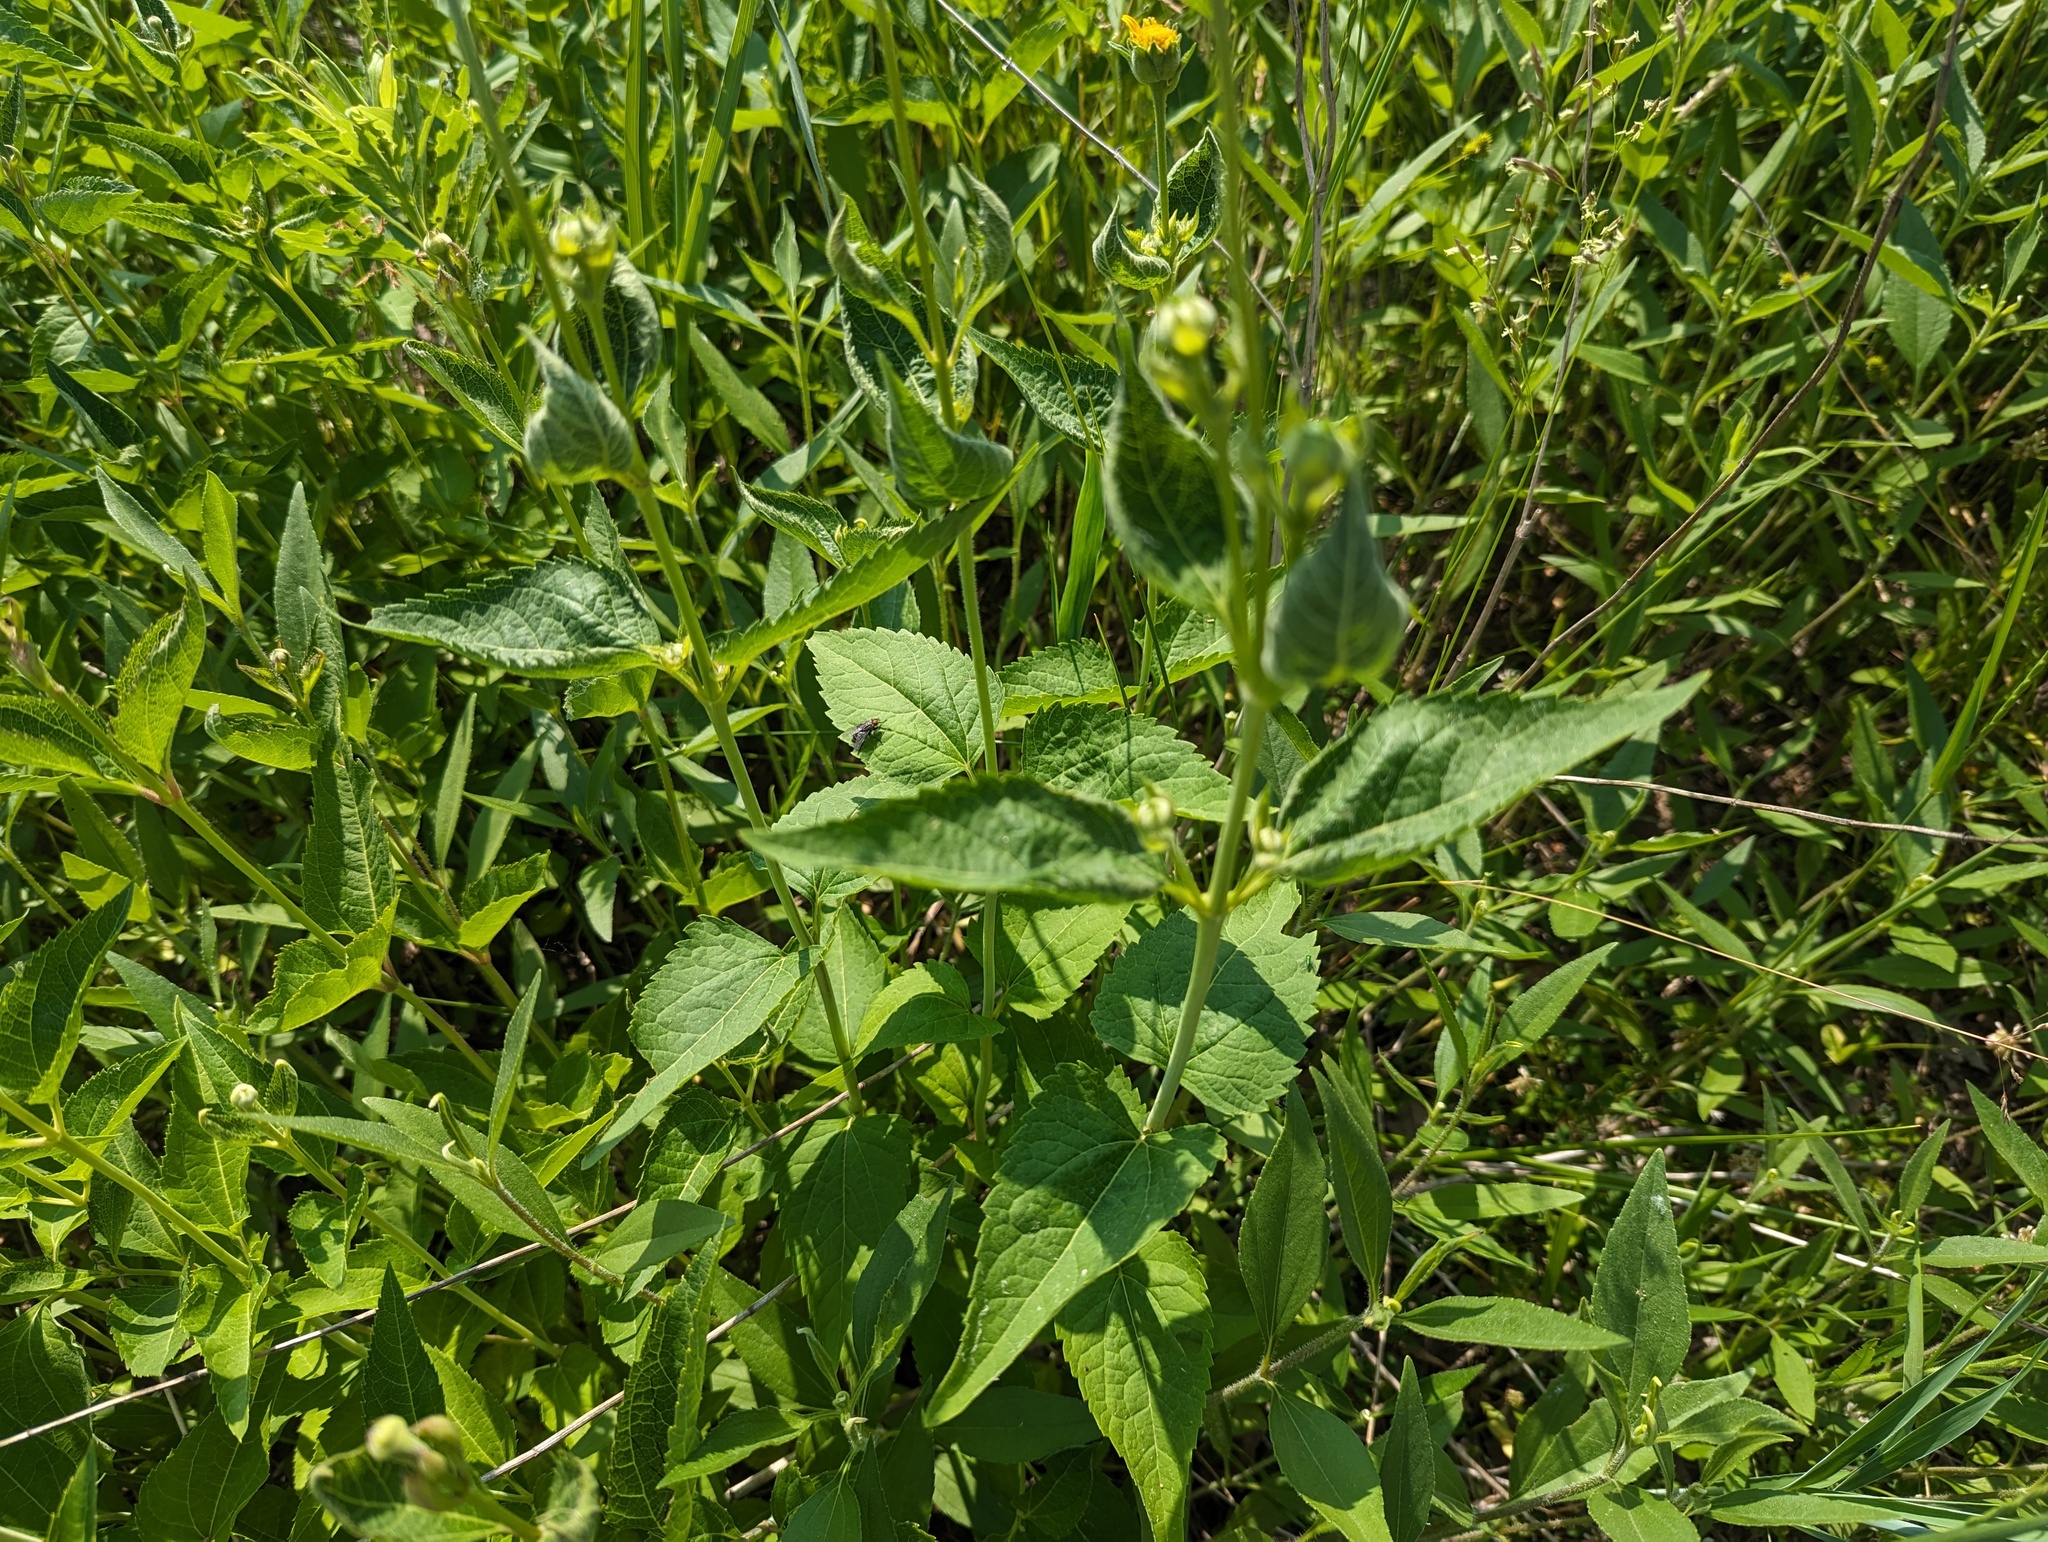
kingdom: Plantae
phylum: Tracheophyta
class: Magnoliopsida
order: Asterales
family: Asteraceae
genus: Heliopsis
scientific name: Heliopsis helianthoides
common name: False sunflower
